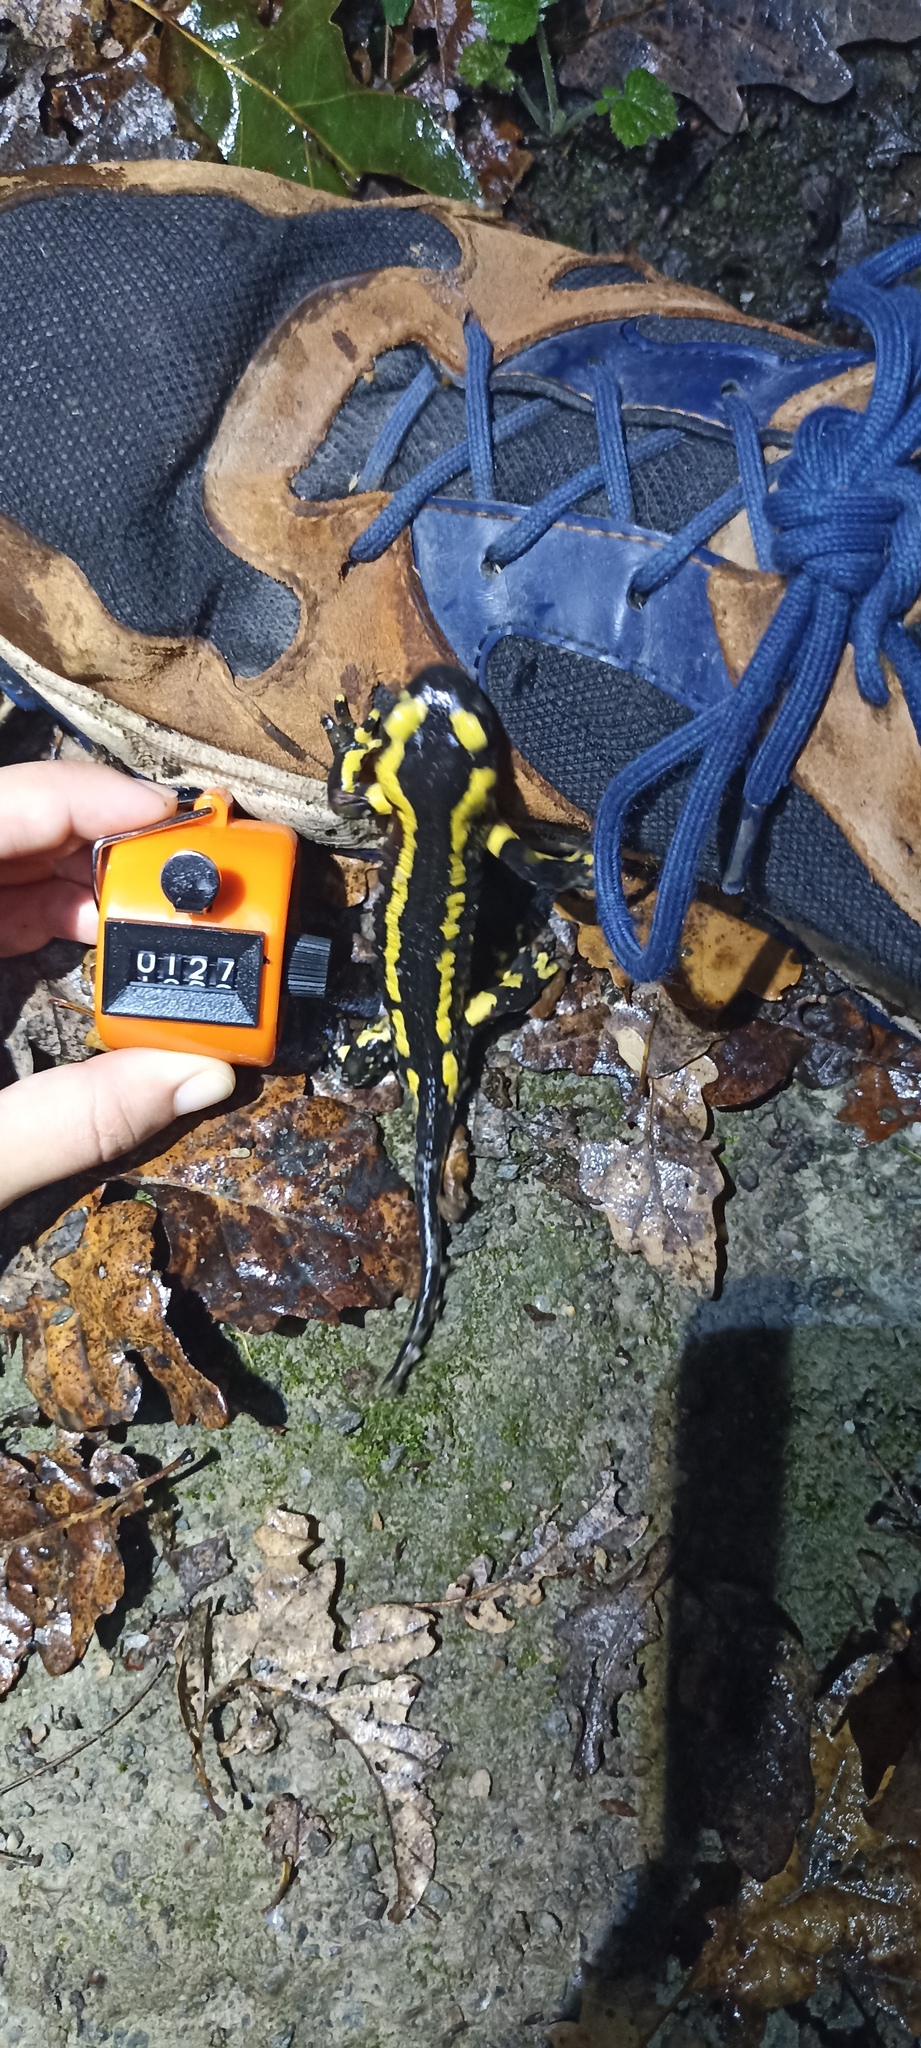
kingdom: Animalia
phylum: Chordata
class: Amphibia
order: Caudata
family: Salamandridae
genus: Salamandra
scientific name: Salamandra salamandra
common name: Fire salamander
